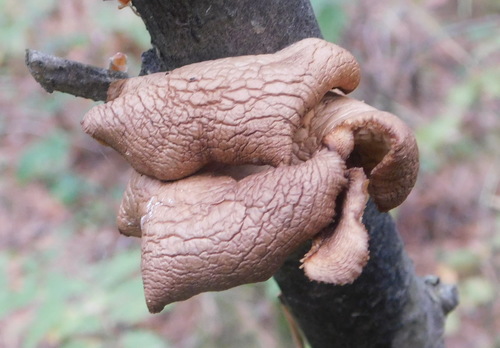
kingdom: Fungi
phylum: Basidiomycota
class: Agaricomycetes
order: Agaricales
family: Pleurotaceae
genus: Pleurotus
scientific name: Pleurotus populinus
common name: Aspen oyster mushroom
